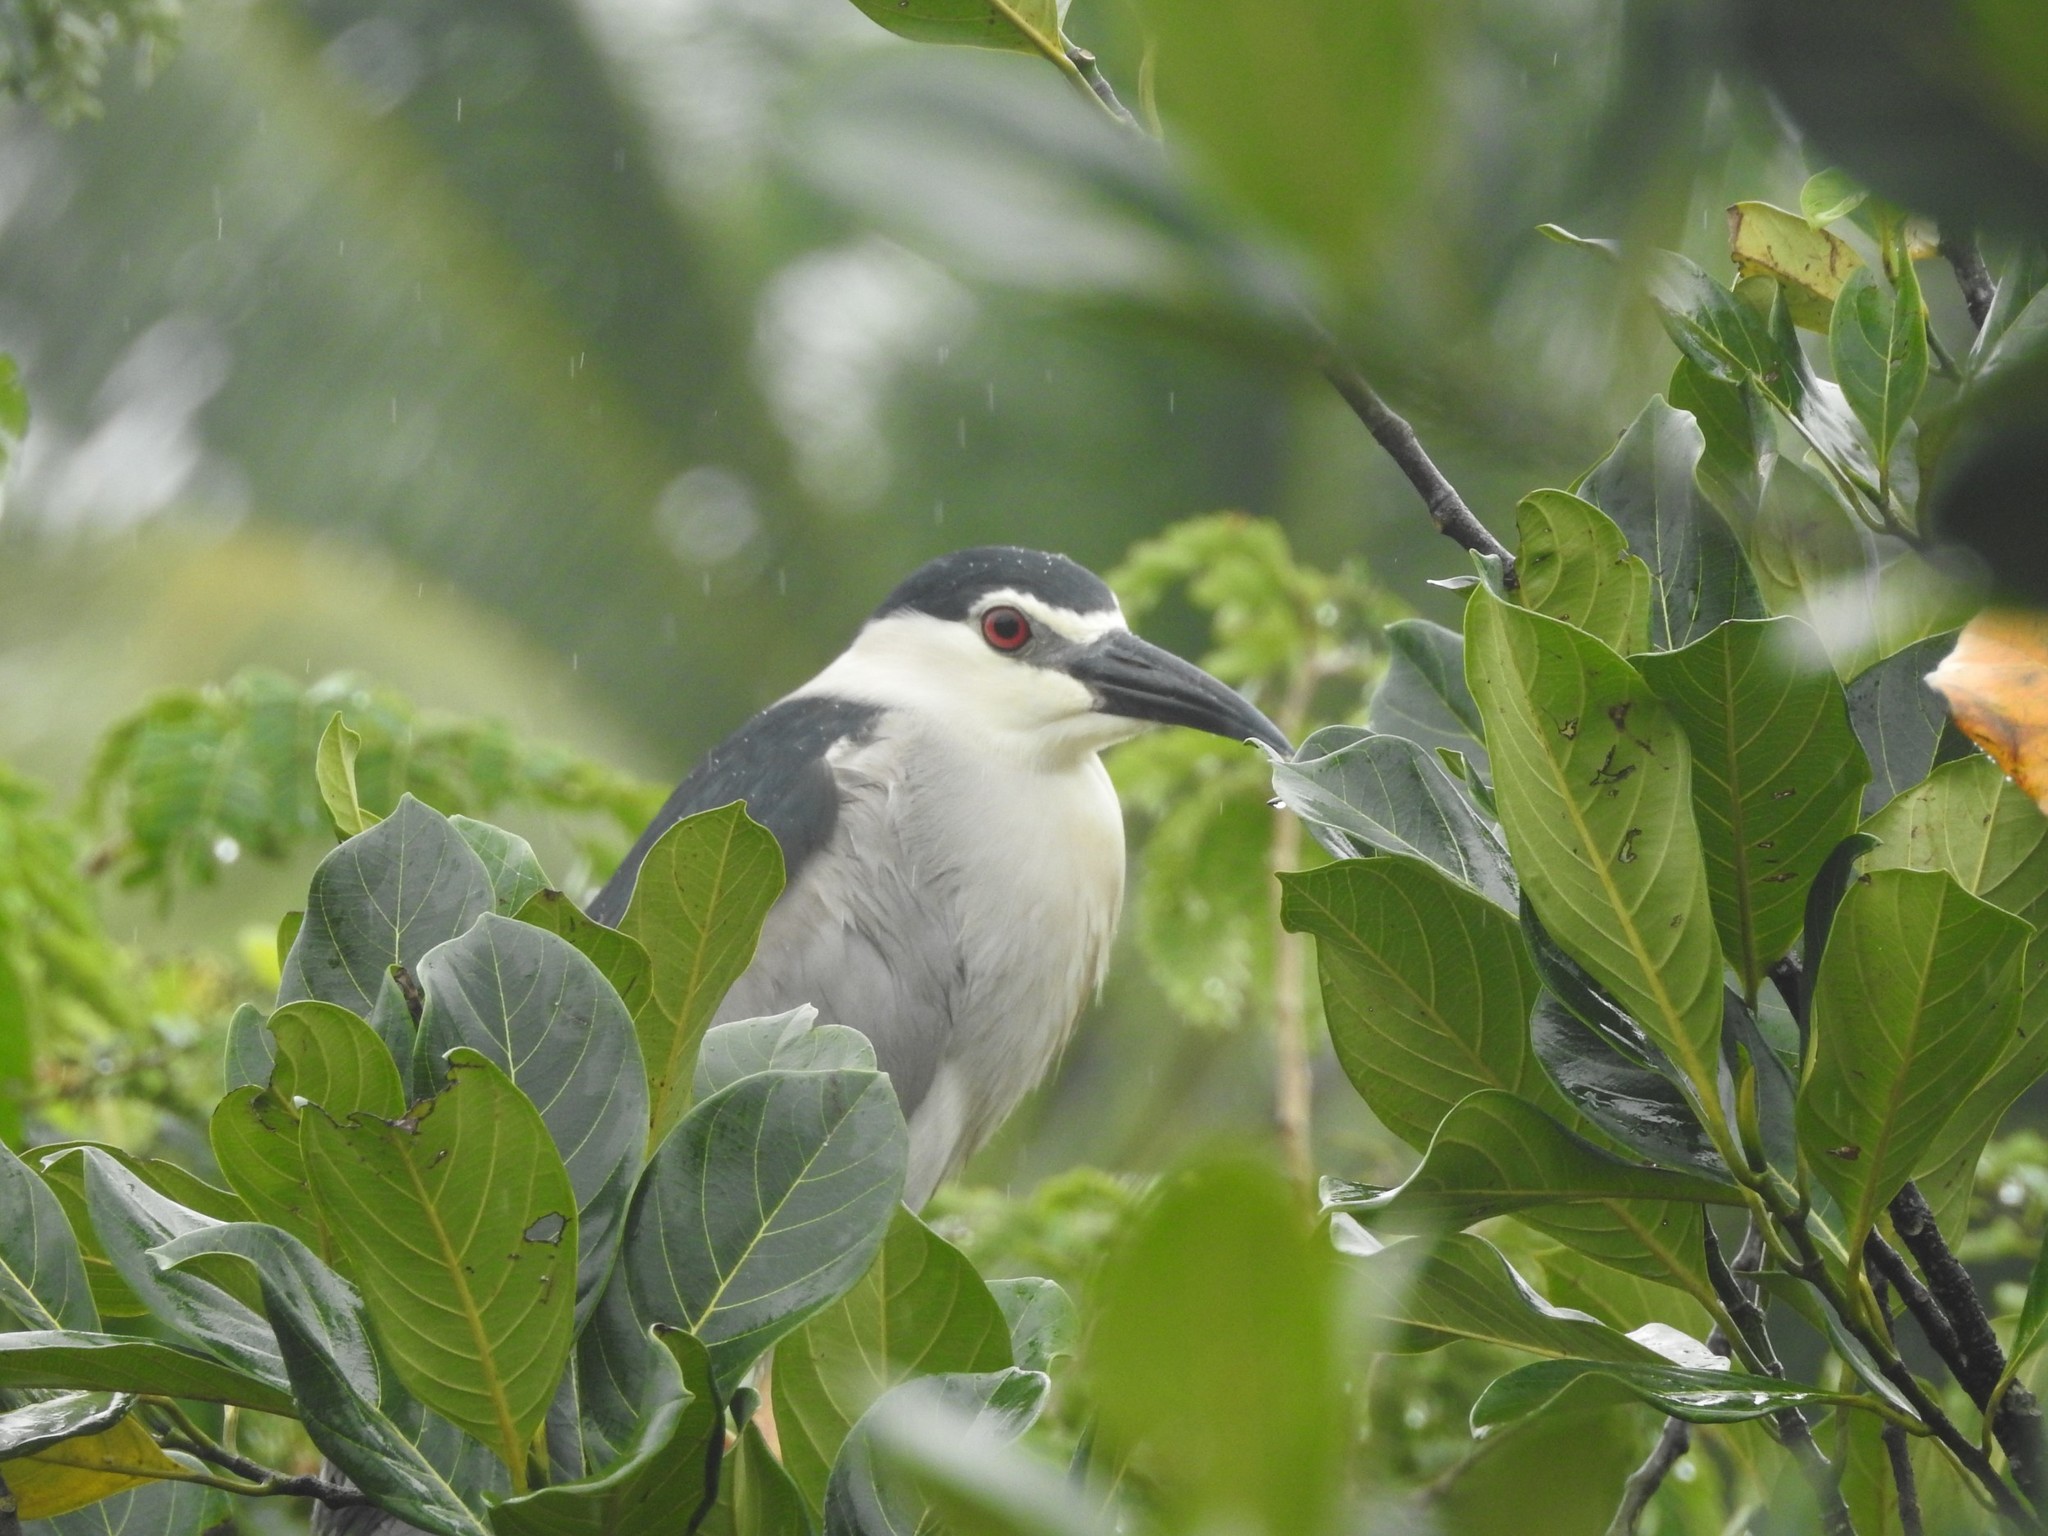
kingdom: Animalia
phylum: Chordata
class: Aves
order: Pelecaniformes
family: Ardeidae
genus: Nycticorax
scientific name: Nycticorax nycticorax
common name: Black-crowned night heron
